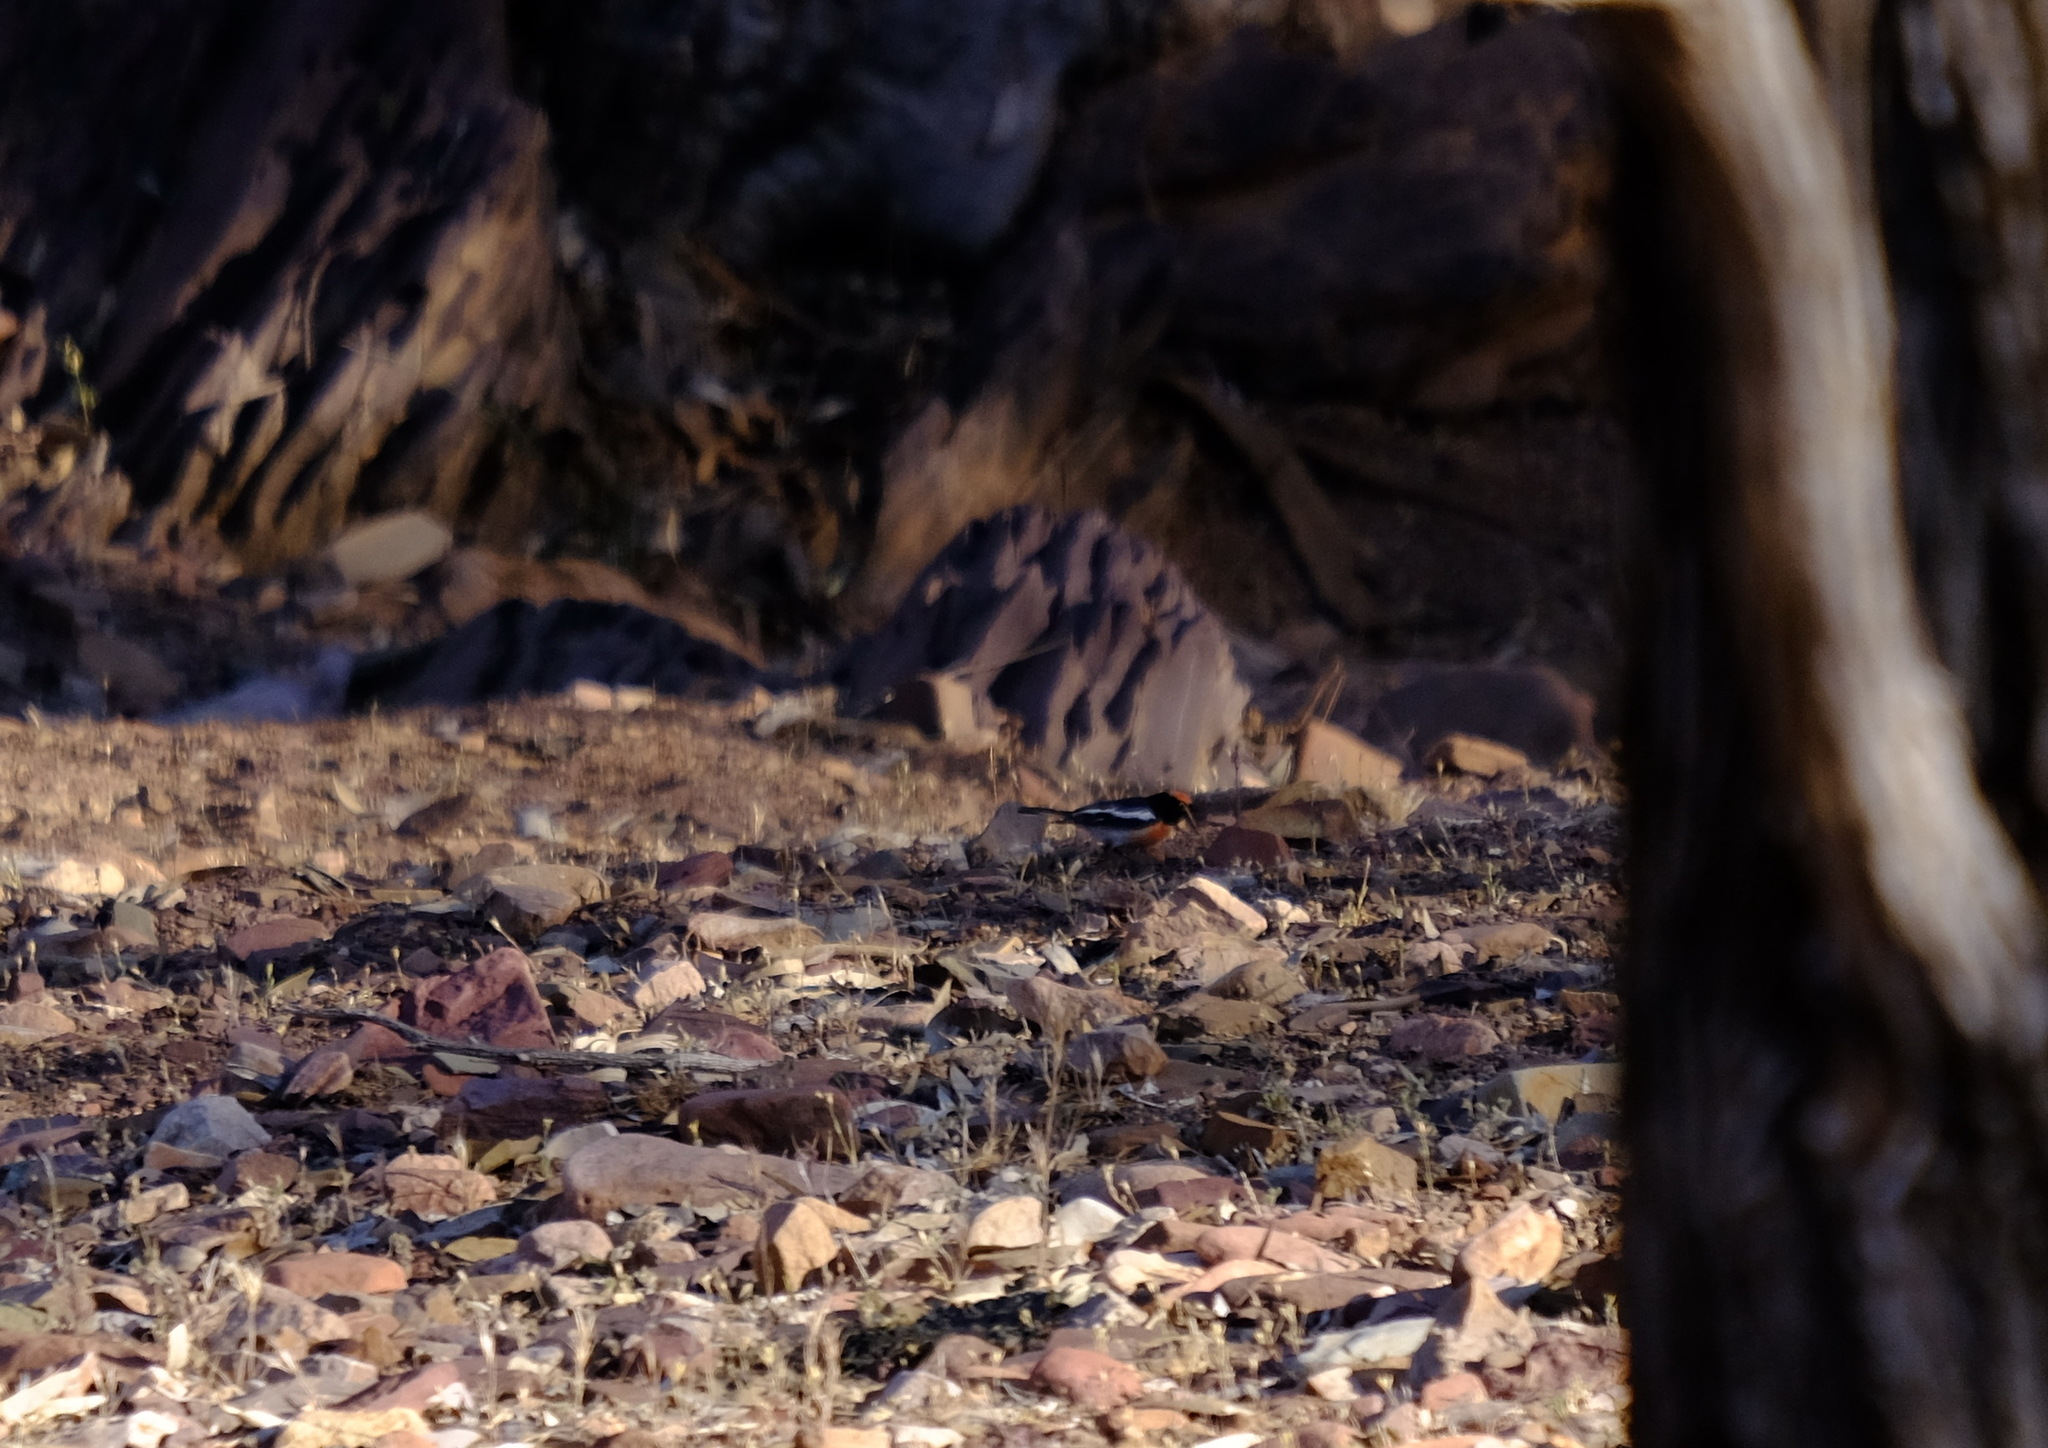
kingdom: Animalia
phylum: Chordata
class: Aves
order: Passeriformes
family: Petroicidae
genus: Petroica
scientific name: Petroica goodenovii
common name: Red-capped robin
